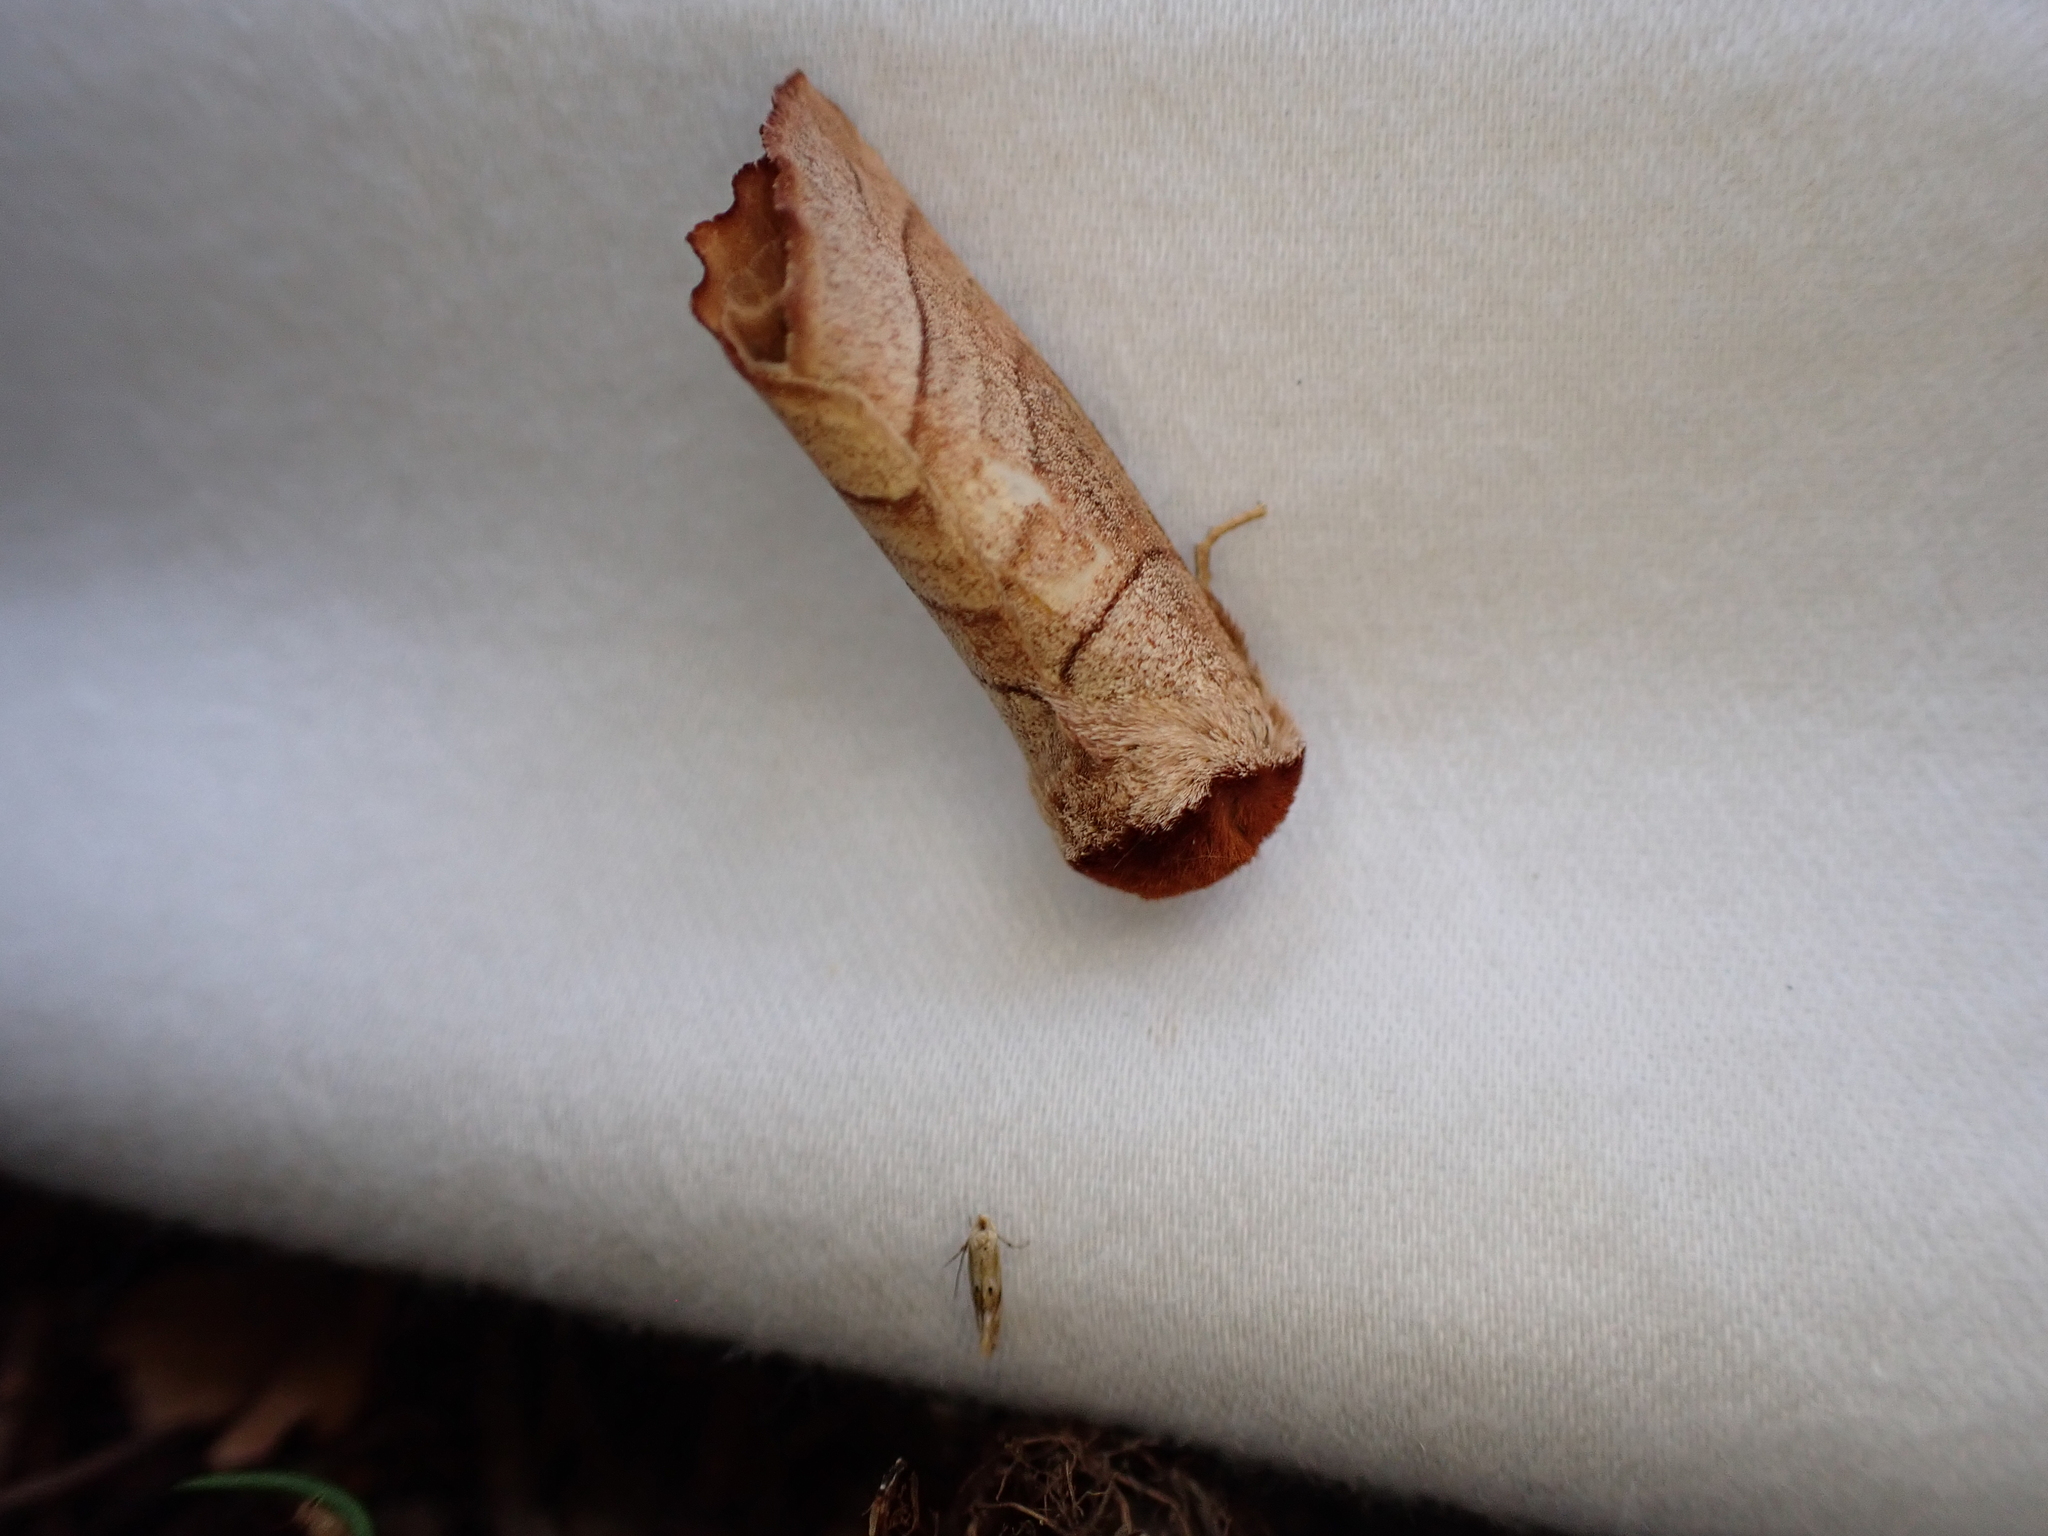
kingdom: Animalia
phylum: Arthropoda
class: Insecta
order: Lepidoptera
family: Notodontidae
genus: Datana
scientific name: Datana
